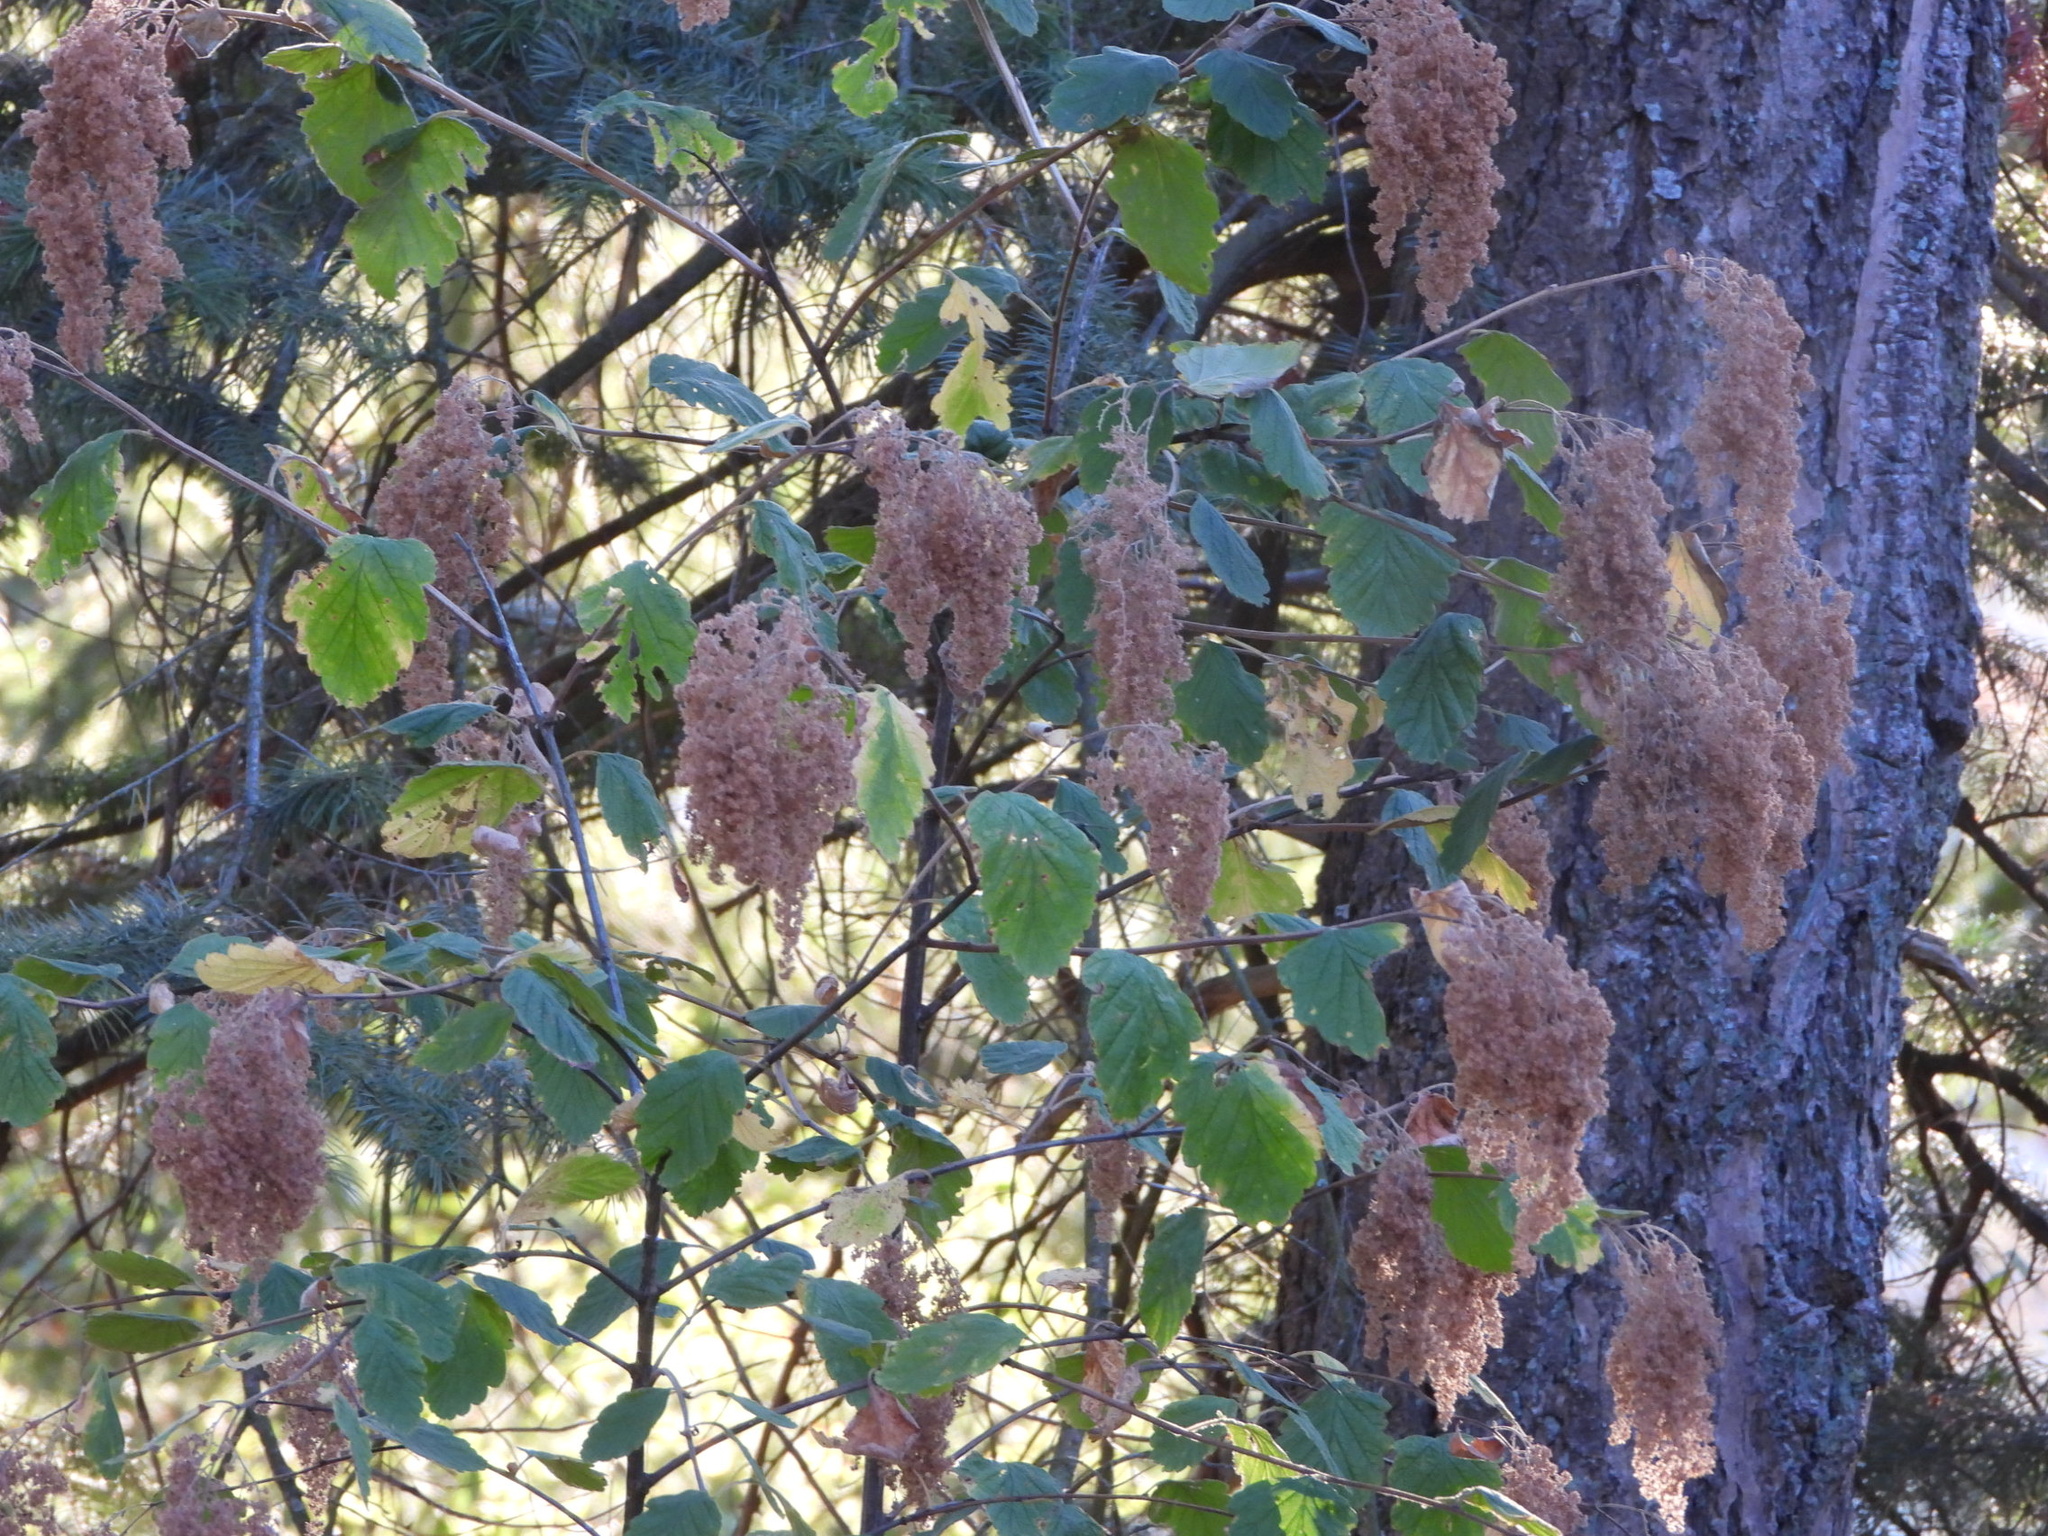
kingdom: Plantae
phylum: Tracheophyta
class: Magnoliopsida
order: Rosales
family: Rosaceae
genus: Holodiscus
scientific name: Holodiscus discolor
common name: Oceanspray
